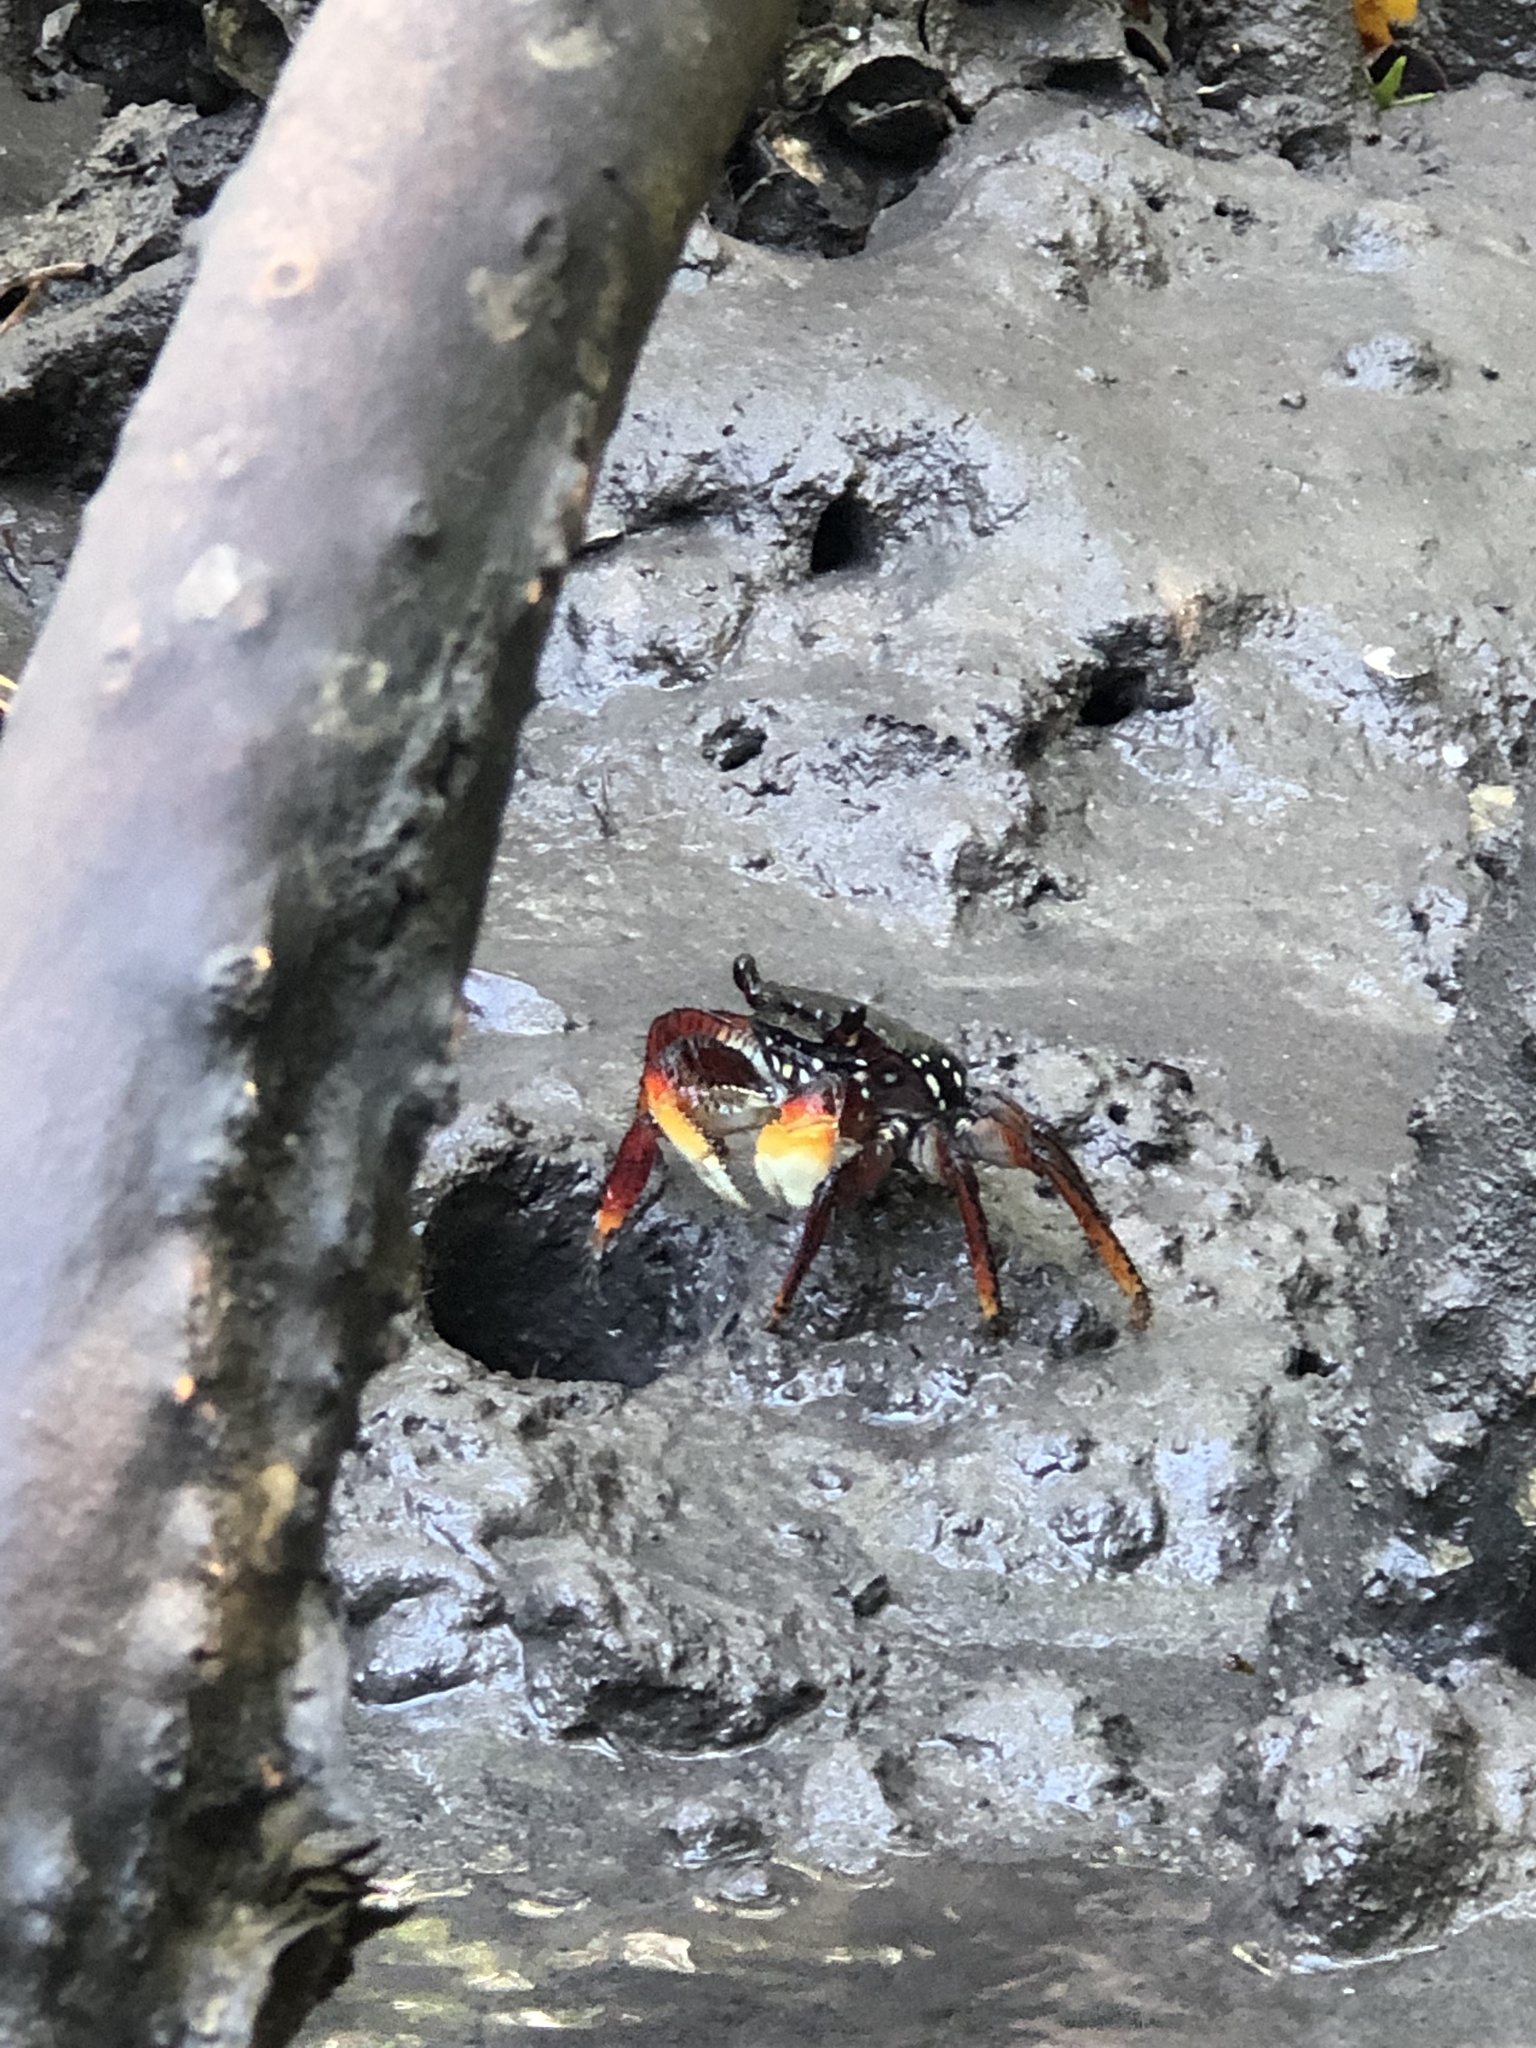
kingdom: Animalia
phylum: Arthropoda
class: Malacostraca
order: Decapoda
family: Grapsidae
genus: Goniopsis
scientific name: Goniopsis cruentata
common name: Mangrove crab
